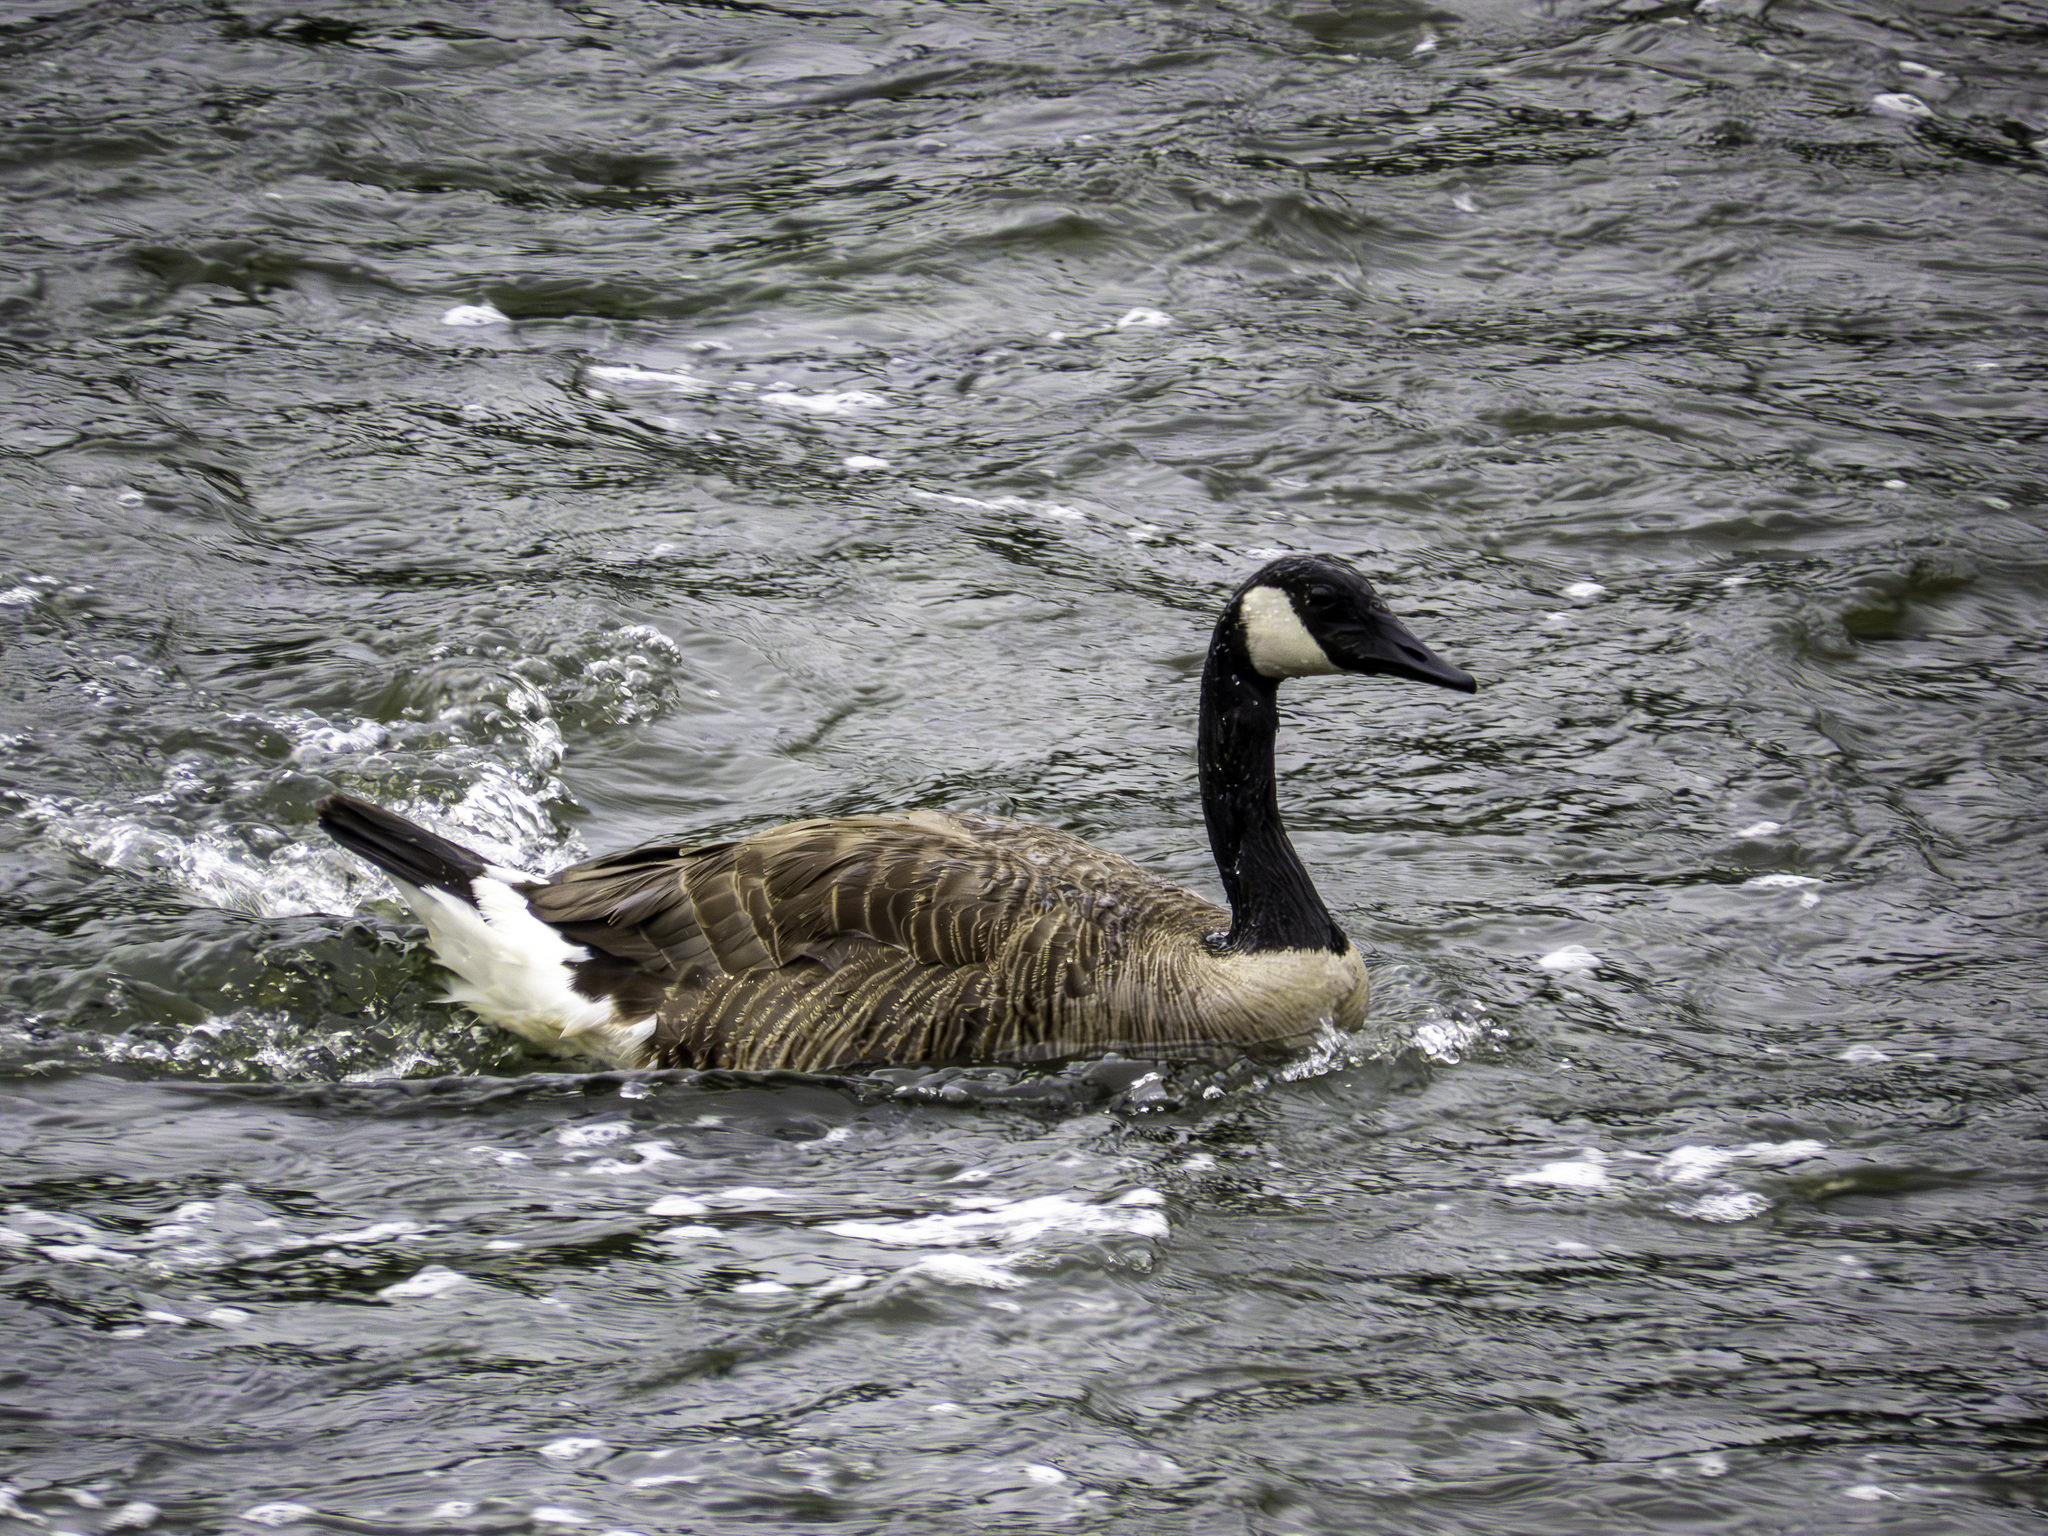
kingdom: Animalia
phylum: Chordata
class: Aves
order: Anseriformes
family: Anatidae
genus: Branta
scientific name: Branta canadensis
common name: Canada goose
